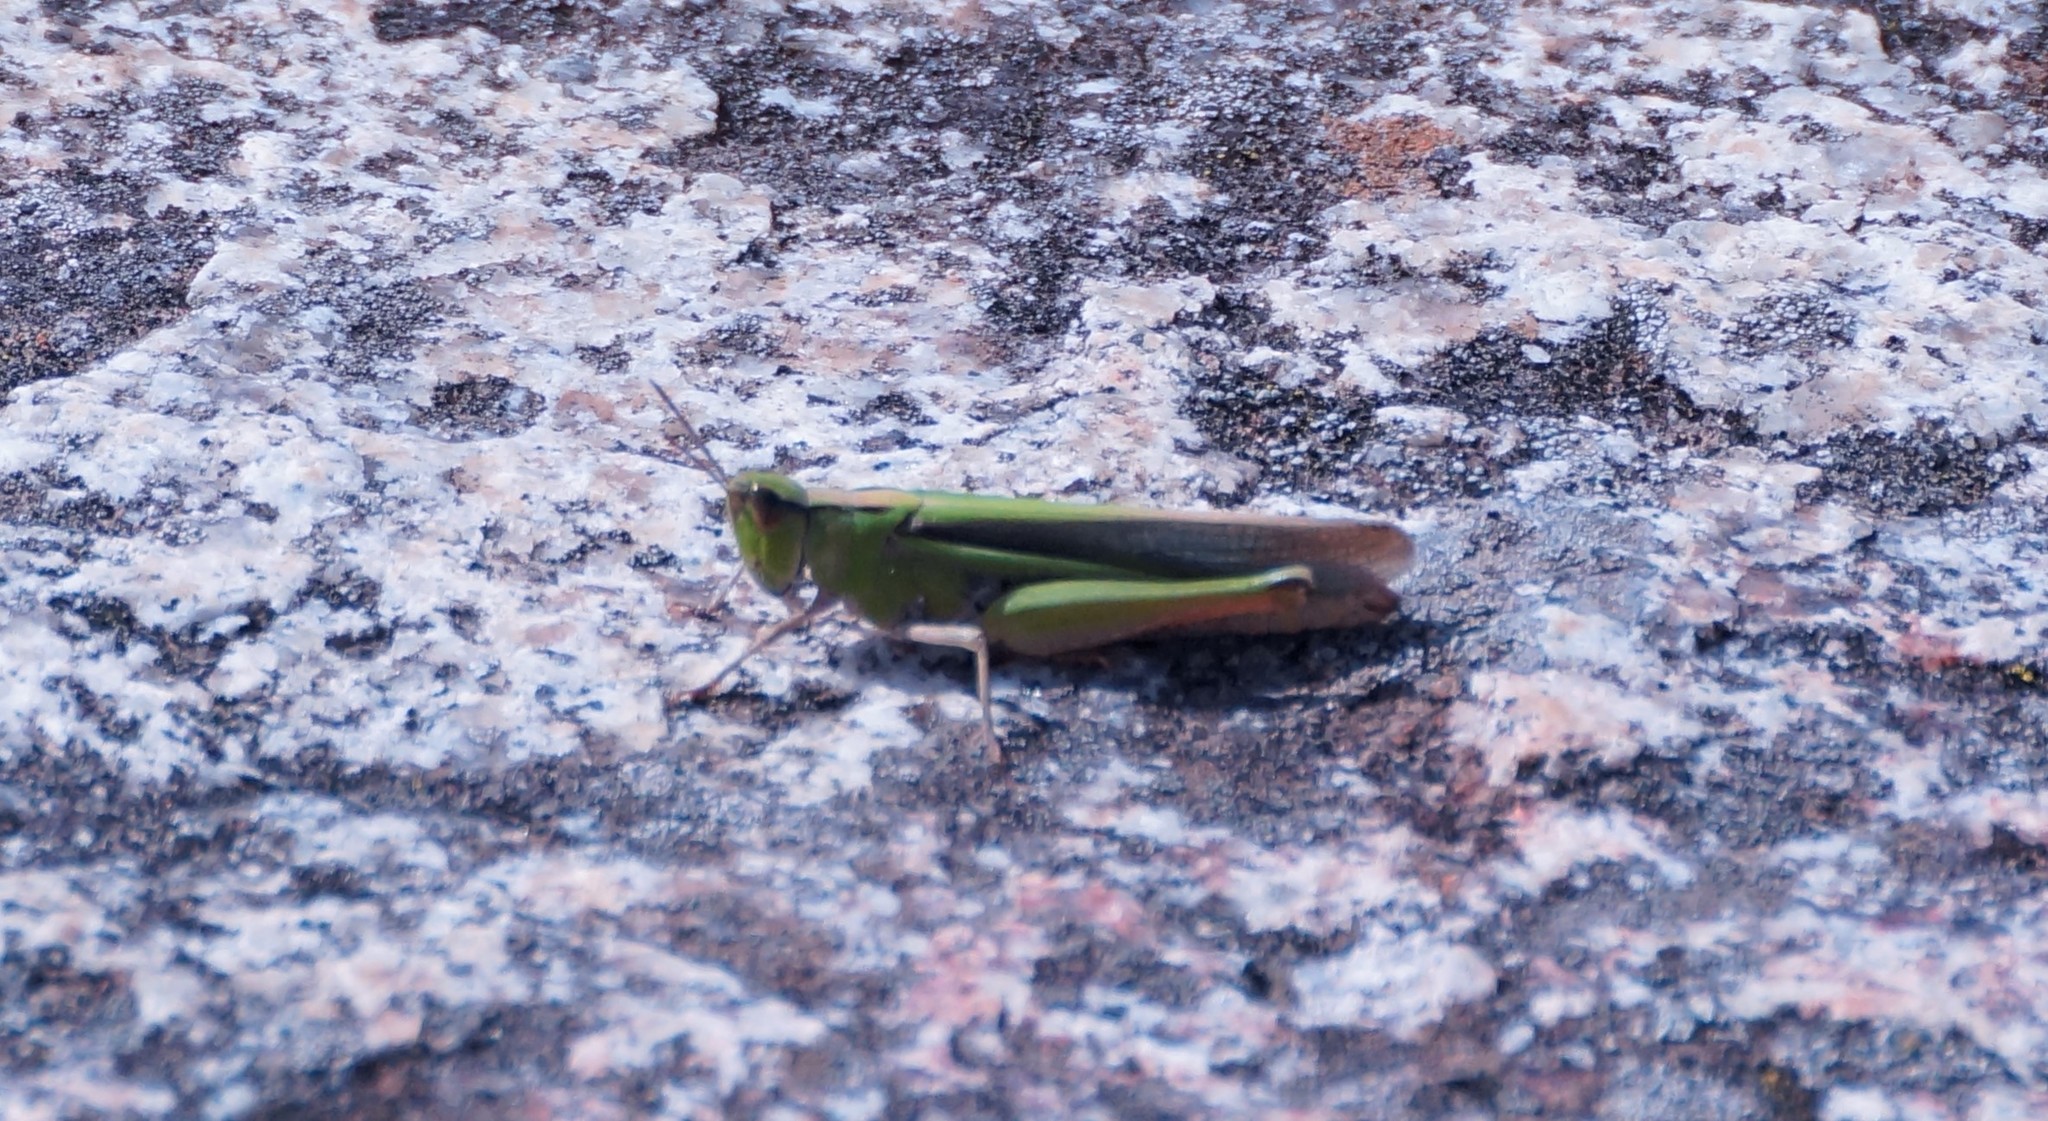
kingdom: Animalia
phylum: Arthropoda
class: Insecta
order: Orthoptera
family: Acrididae
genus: Schizobothrus
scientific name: Schizobothrus flavovittatus
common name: Disappearing grasshopper
